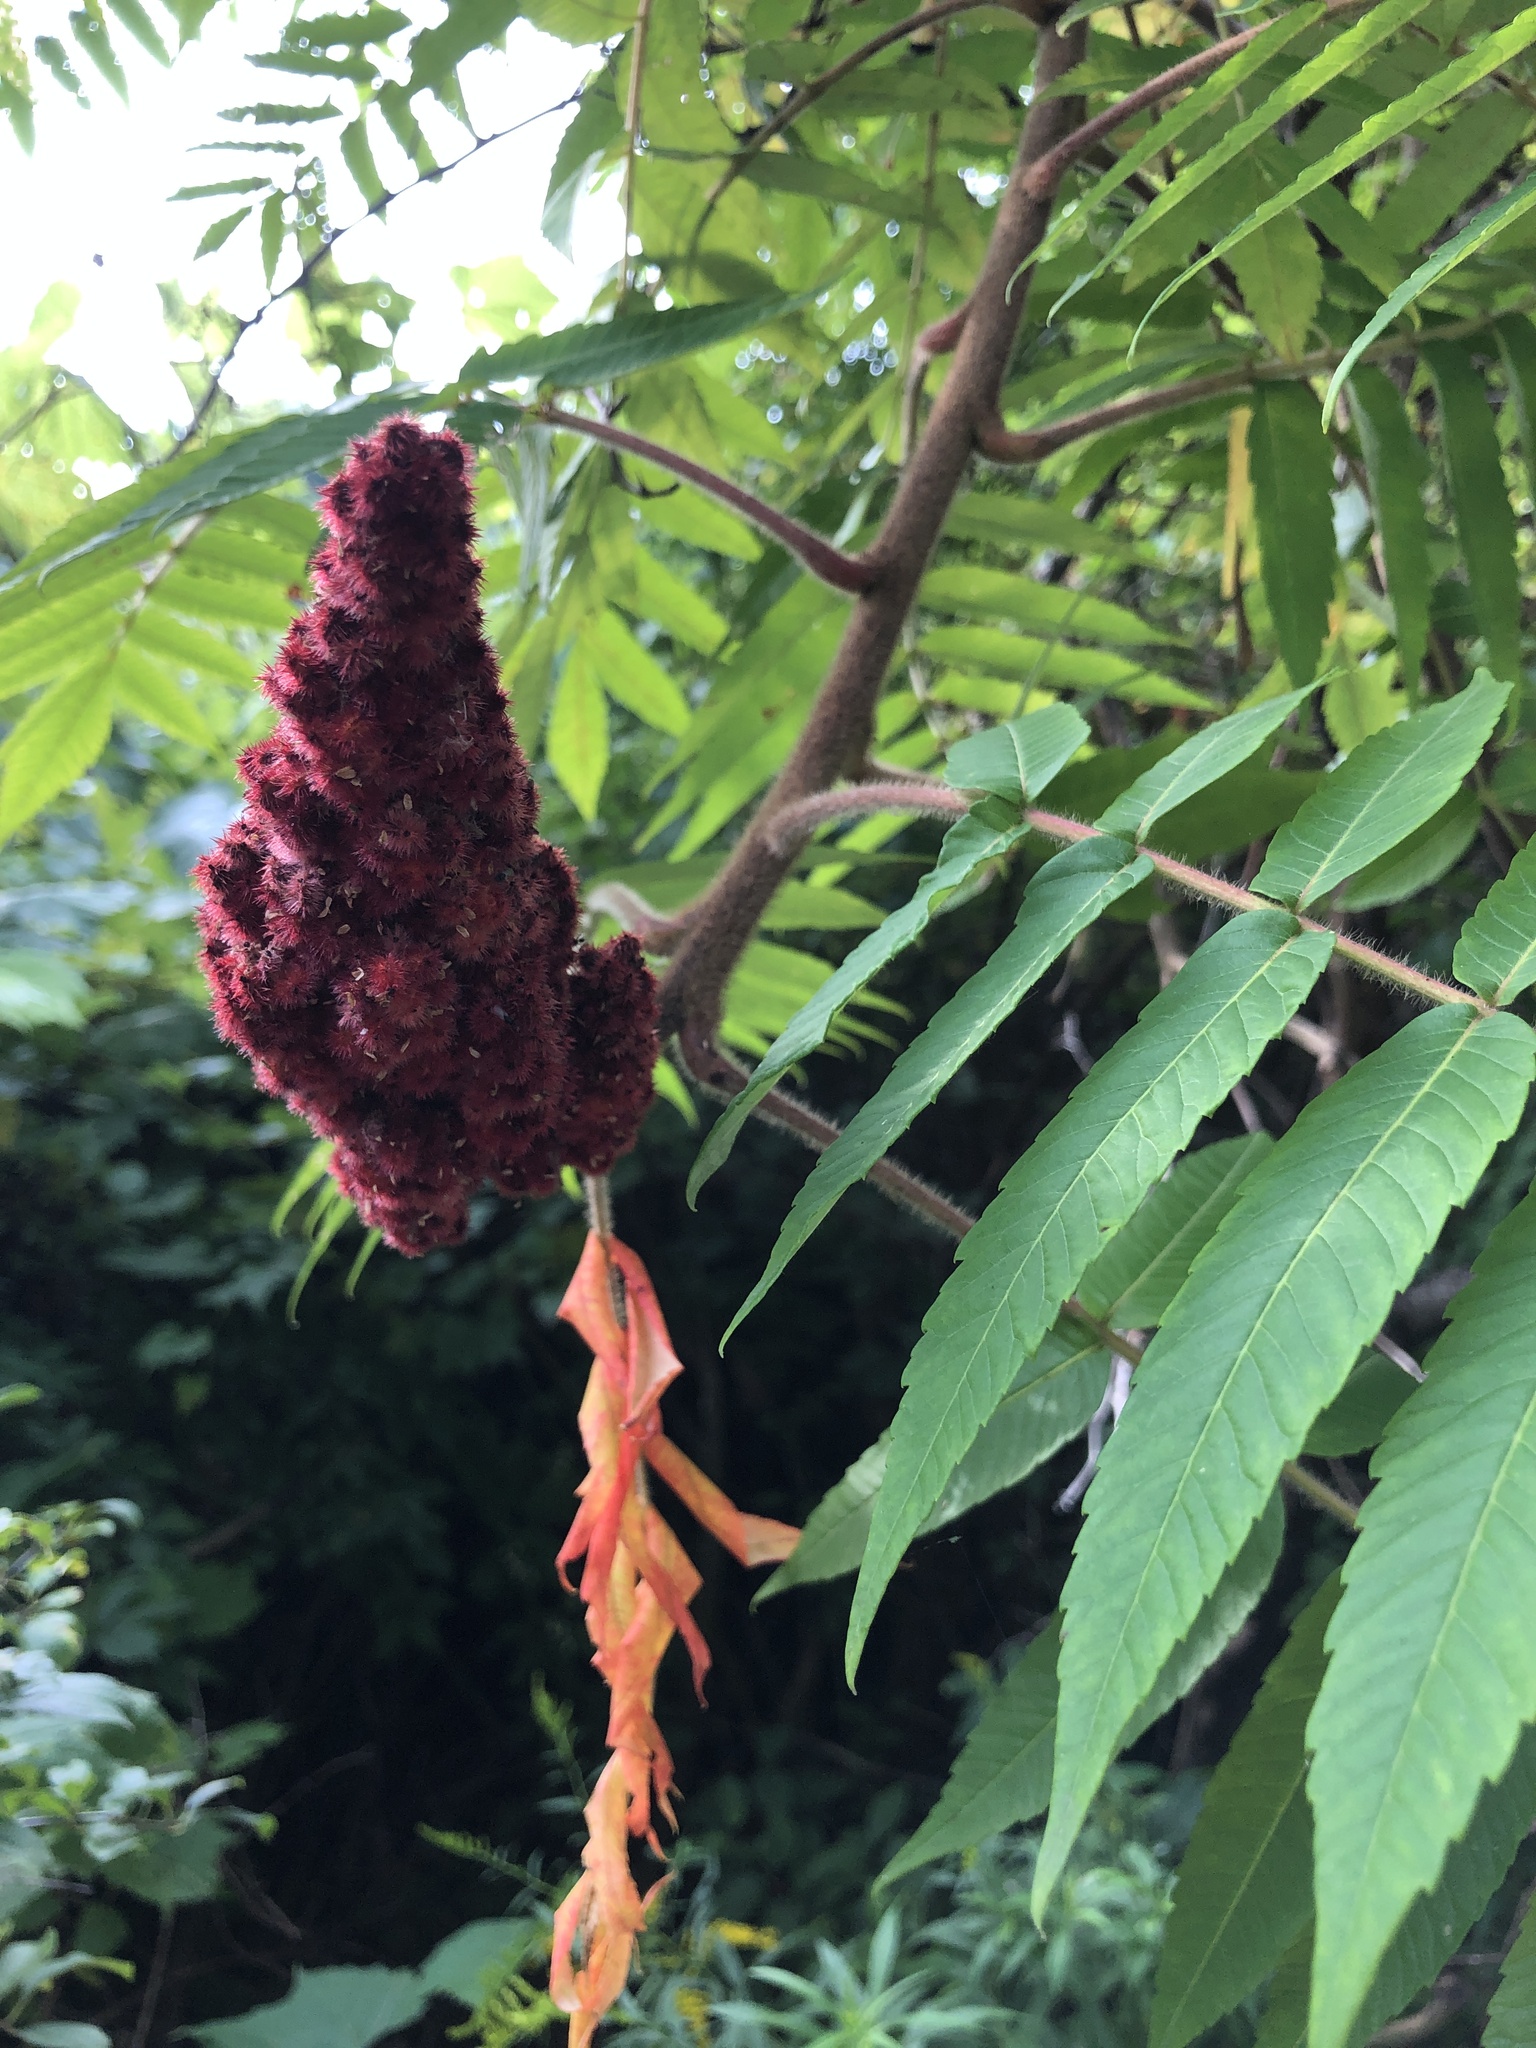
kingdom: Plantae
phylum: Tracheophyta
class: Magnoliopsida
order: Sapindales
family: Anacardiaceae
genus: Rhus
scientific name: Rhus typhina
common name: Staghorn sumac
